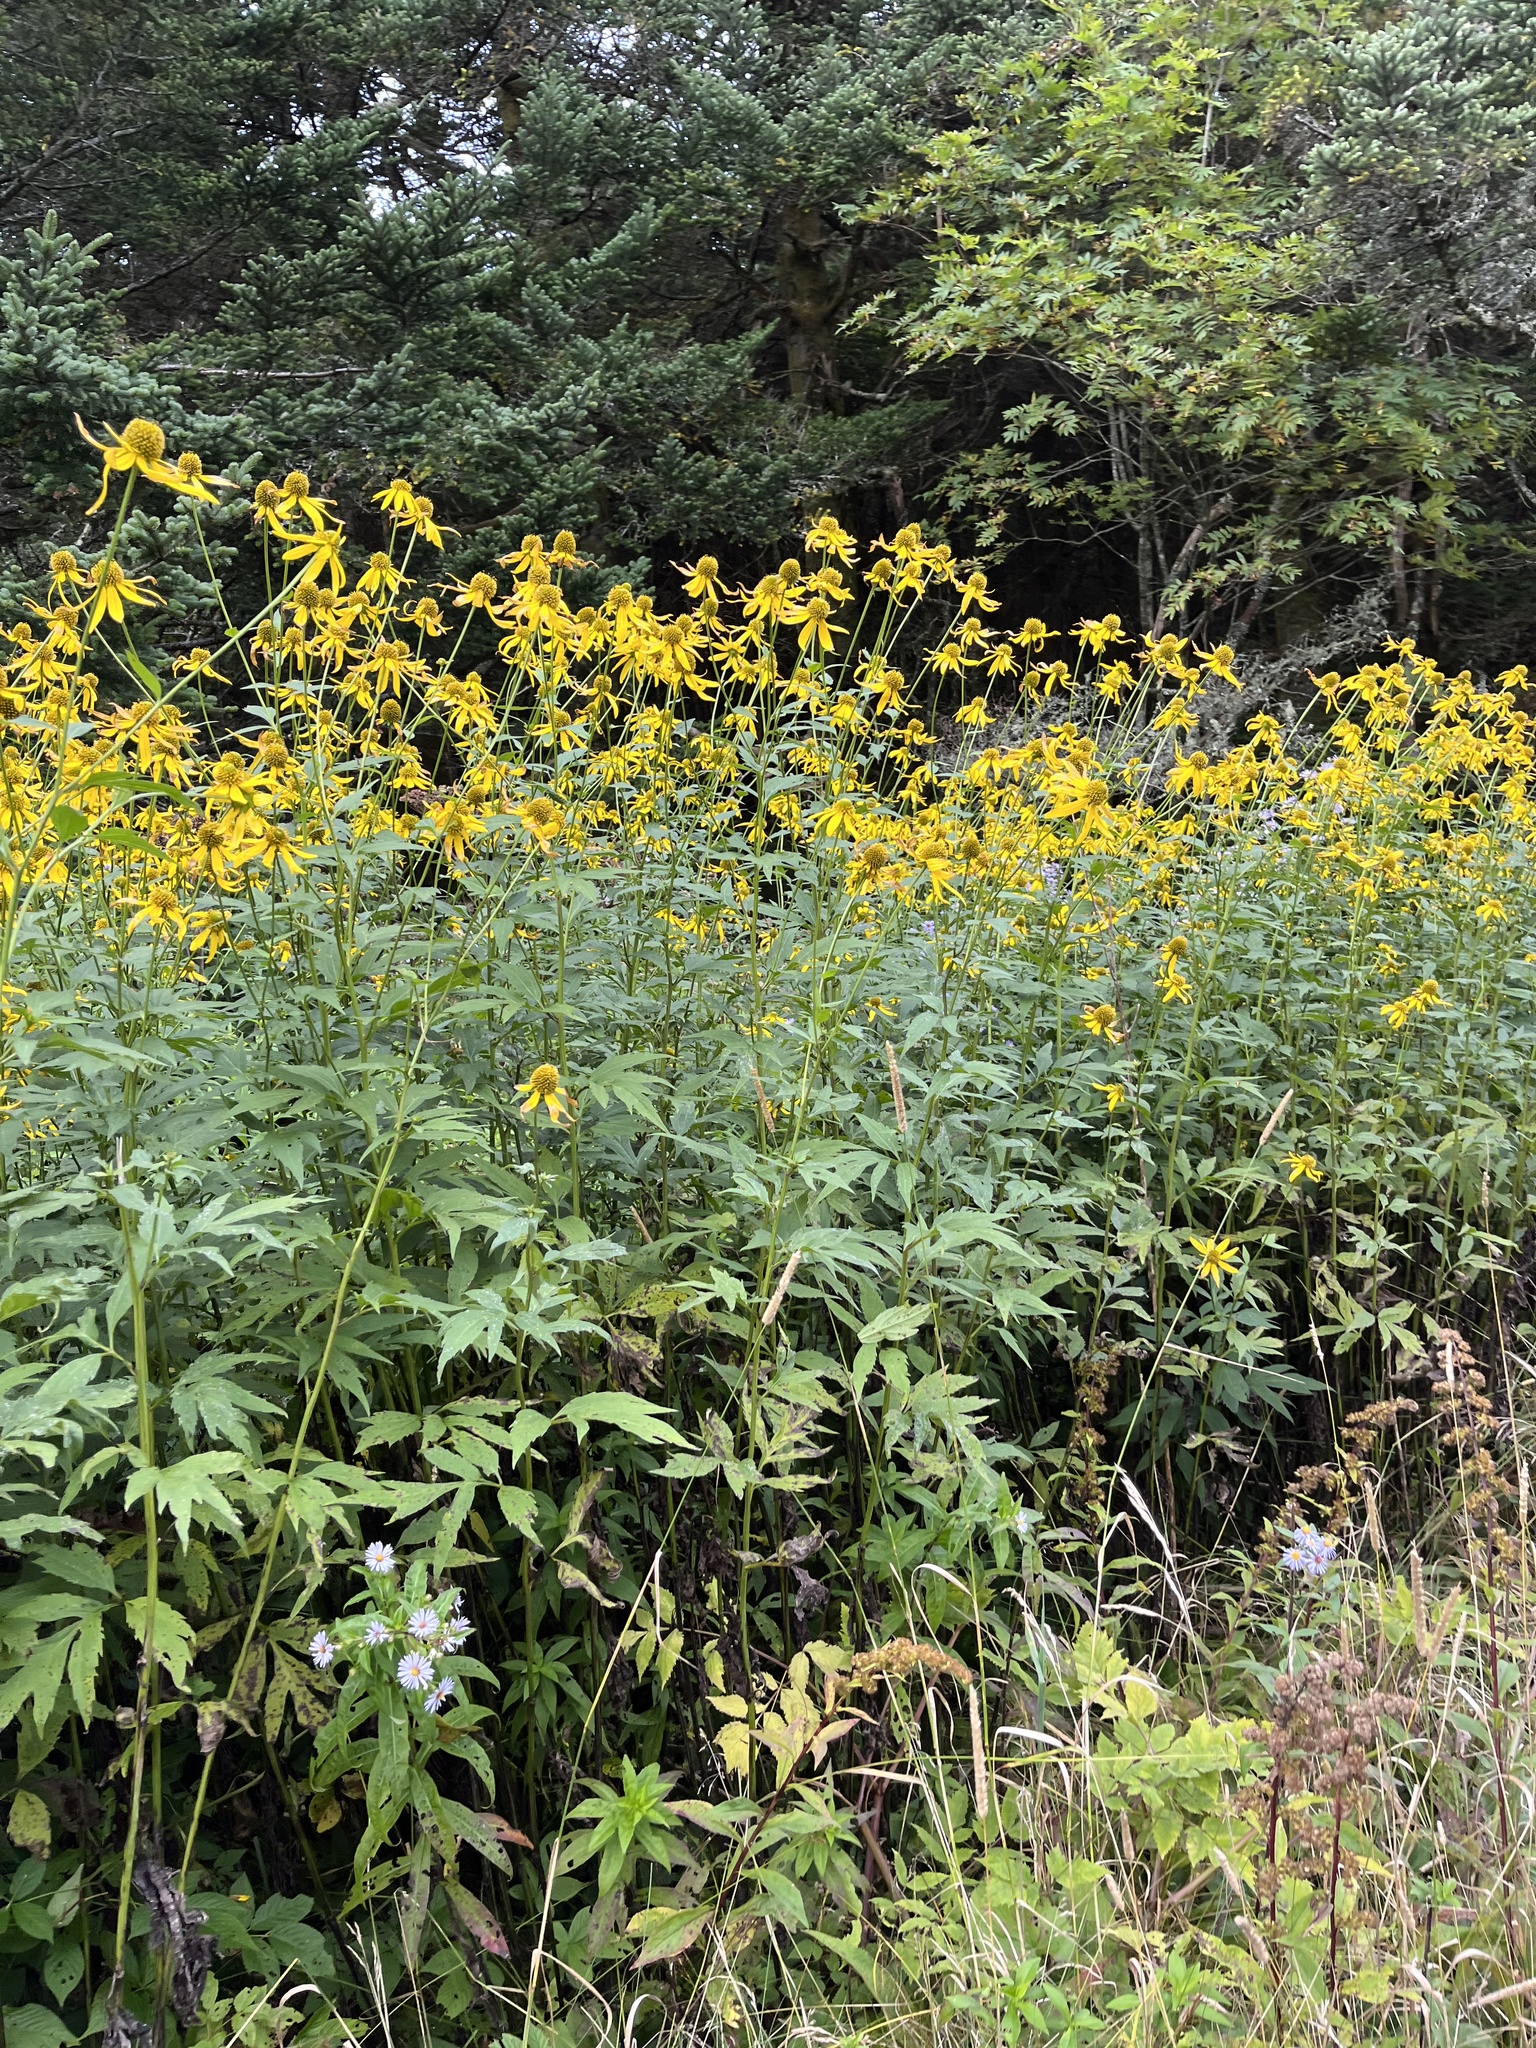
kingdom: Plantae
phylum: Tracheophyta
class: Magnoliopsida
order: Asterales
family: Asteraceae
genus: Rudbeckia
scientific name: Rudbeckia laciniata
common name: Coneflower
